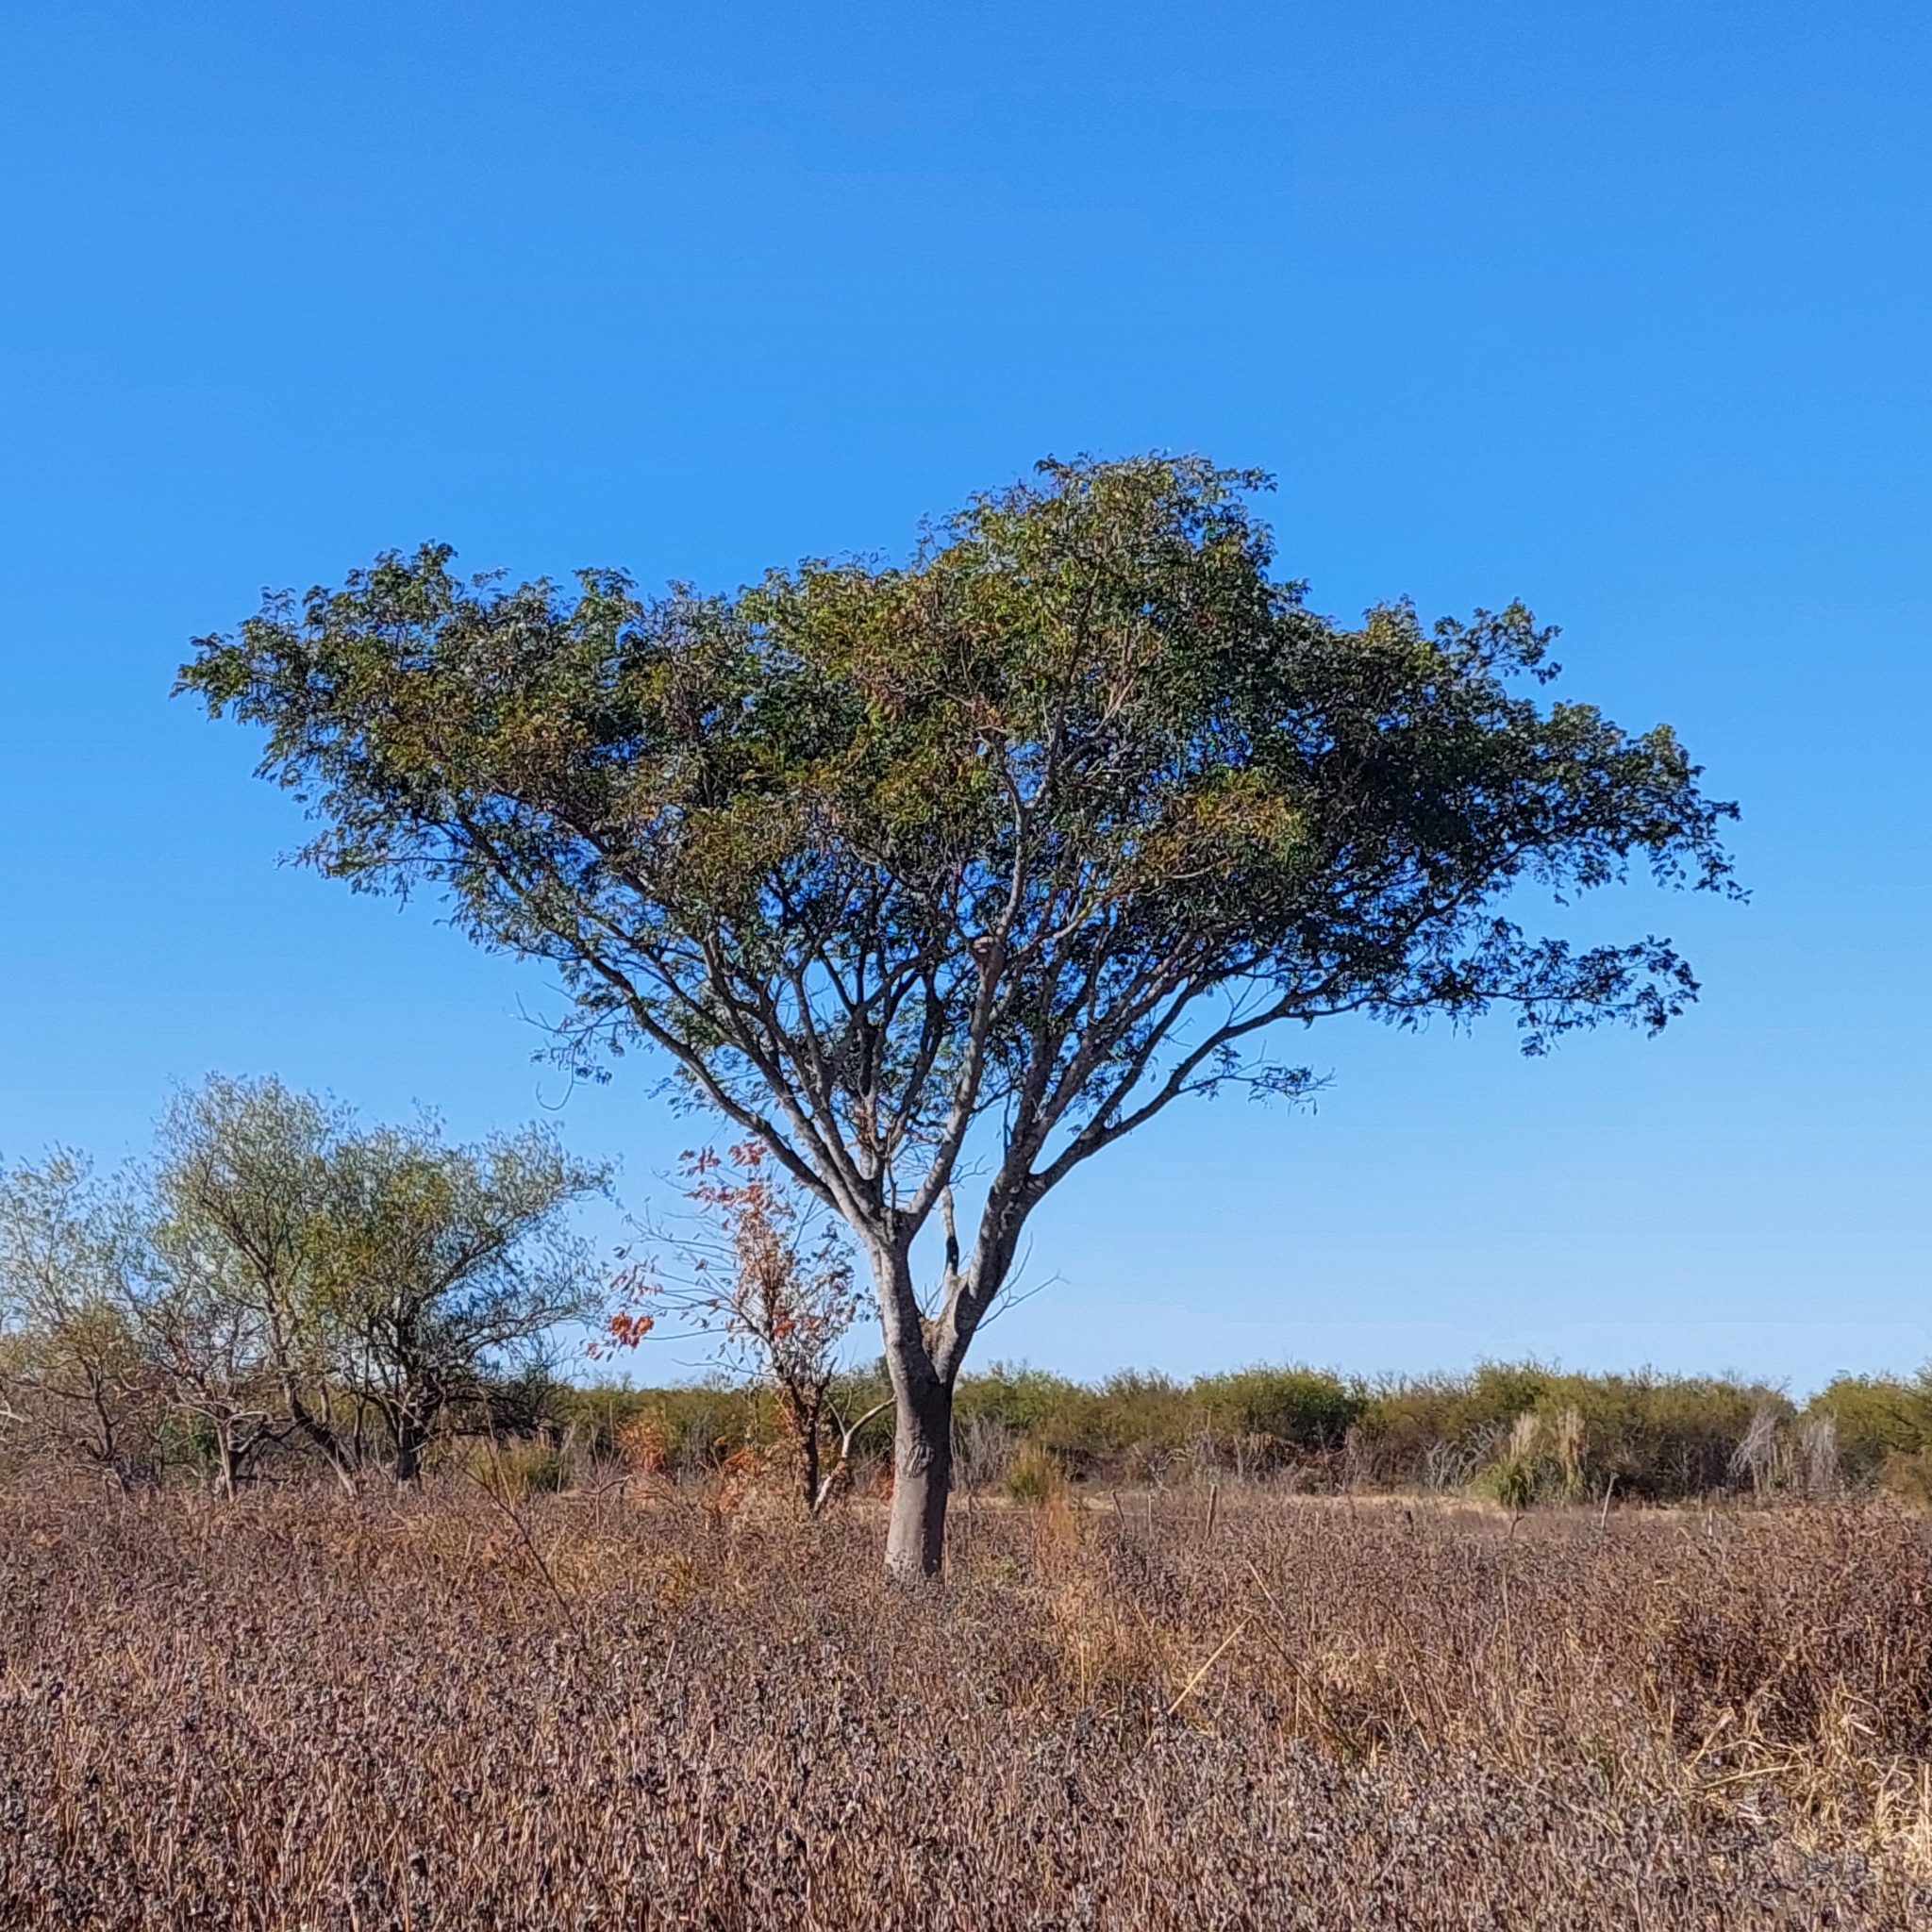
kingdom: Plantae
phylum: Tracheophyta
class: Magnoliopsida
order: Fabales
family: Fabaceae
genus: Albizia
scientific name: Albizia inundata
